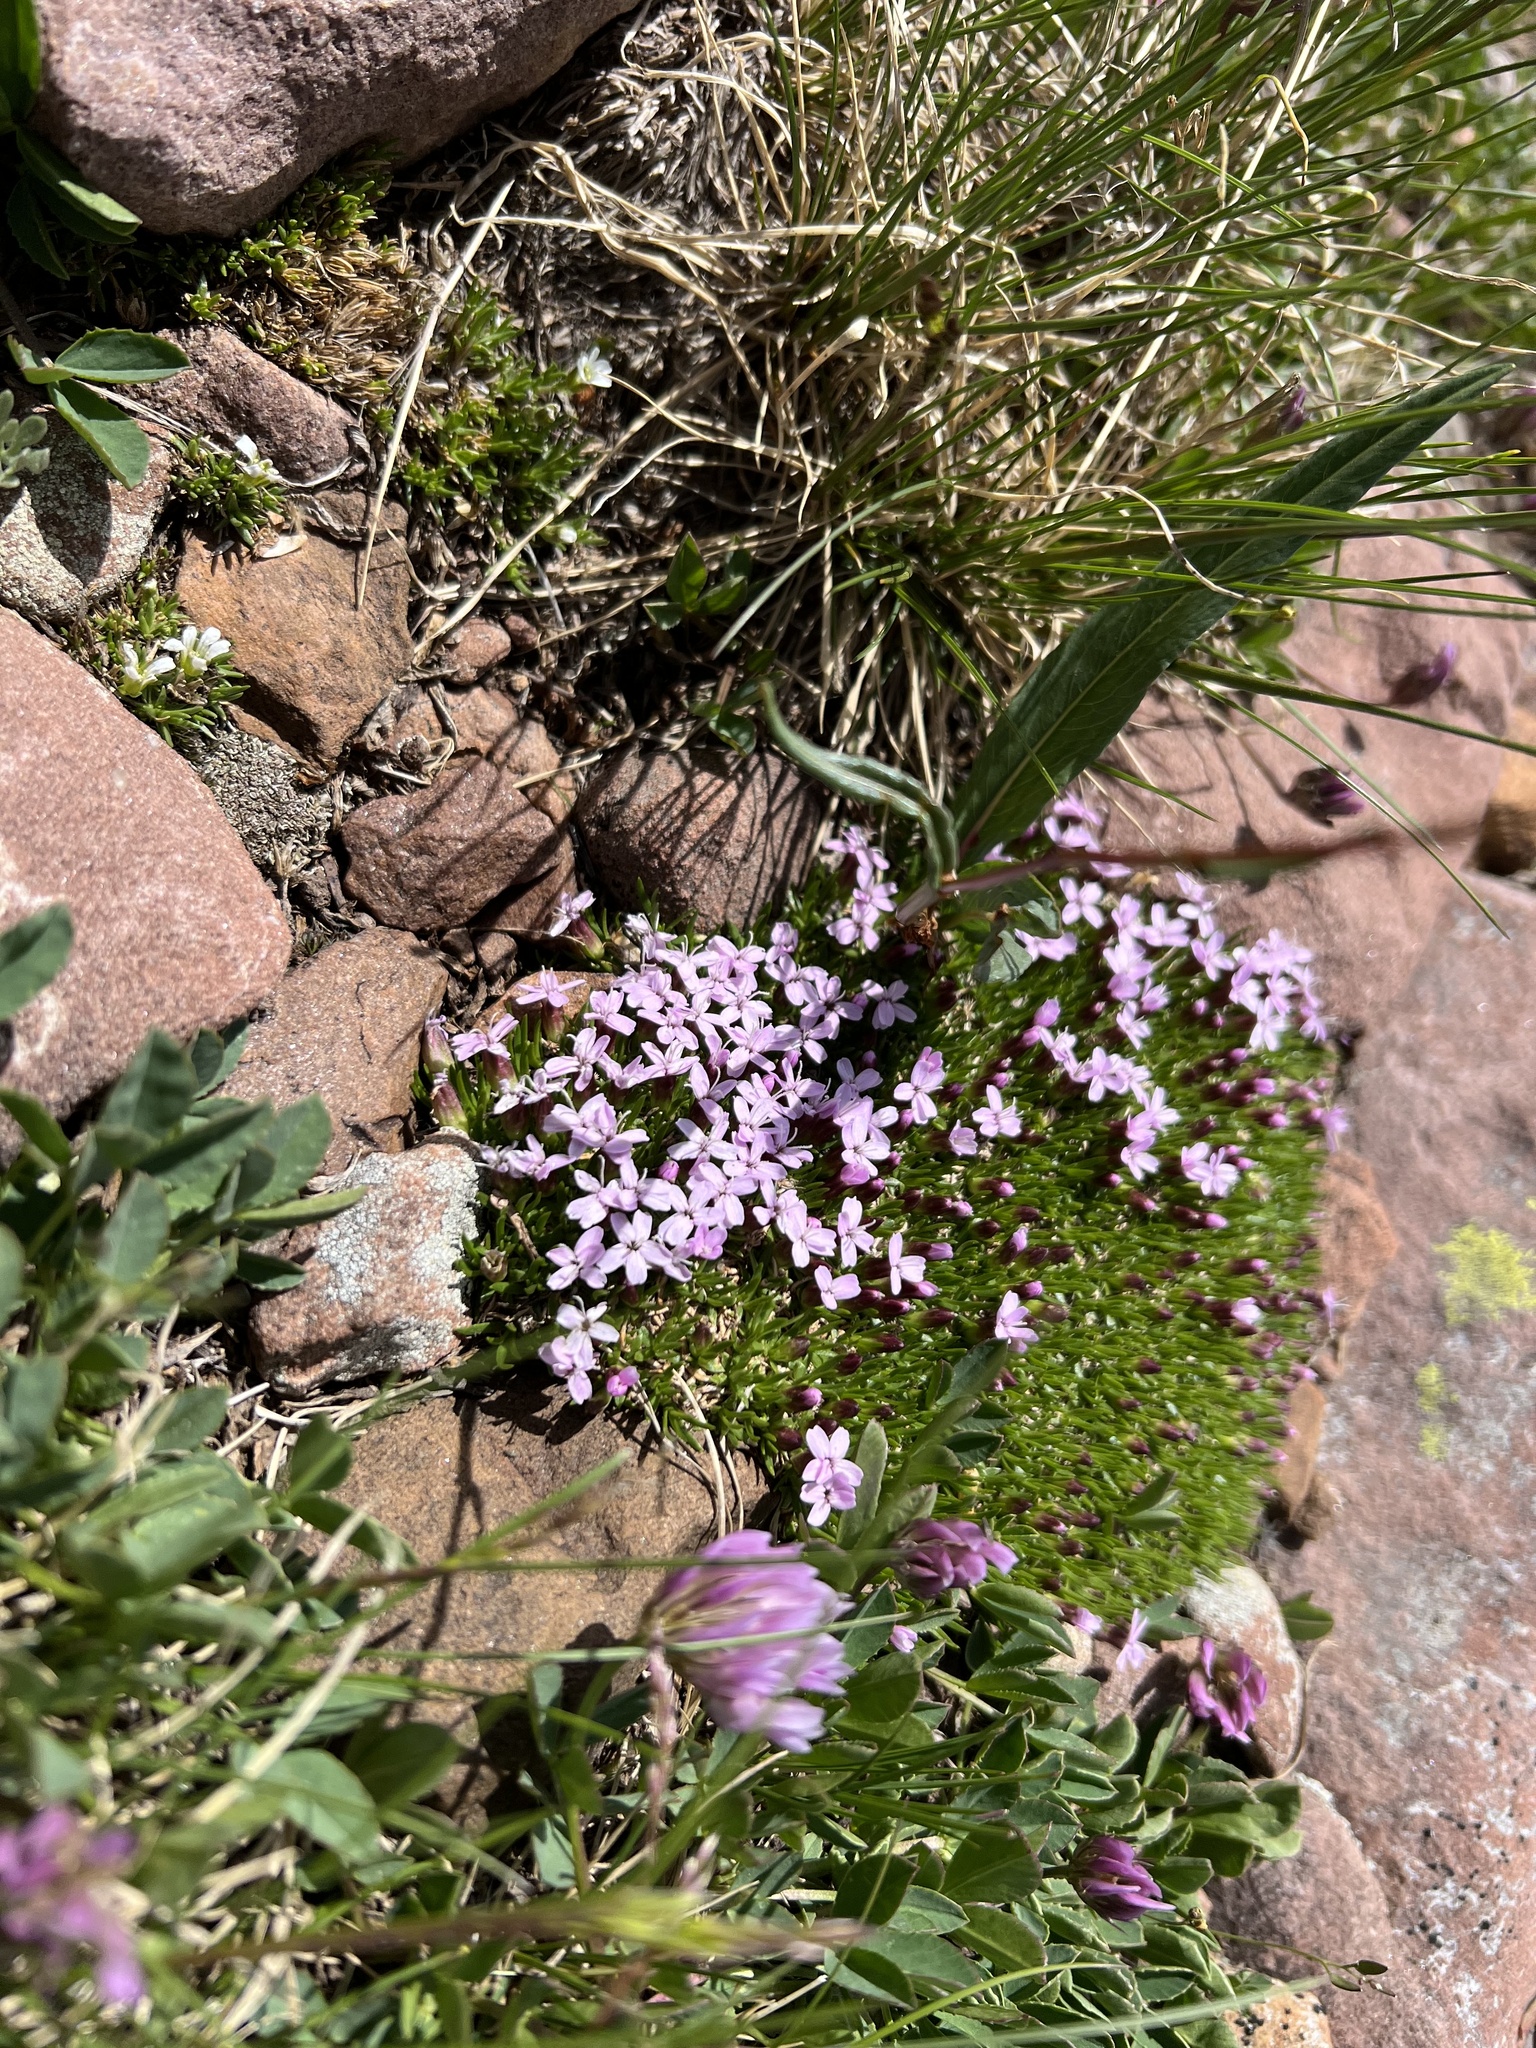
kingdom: Plantae
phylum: Tracheophyta
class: Magnoliopsida
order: Caryophyllales
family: Caryophyllaceae
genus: Silene
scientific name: Silene acaulis
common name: Moss campion
